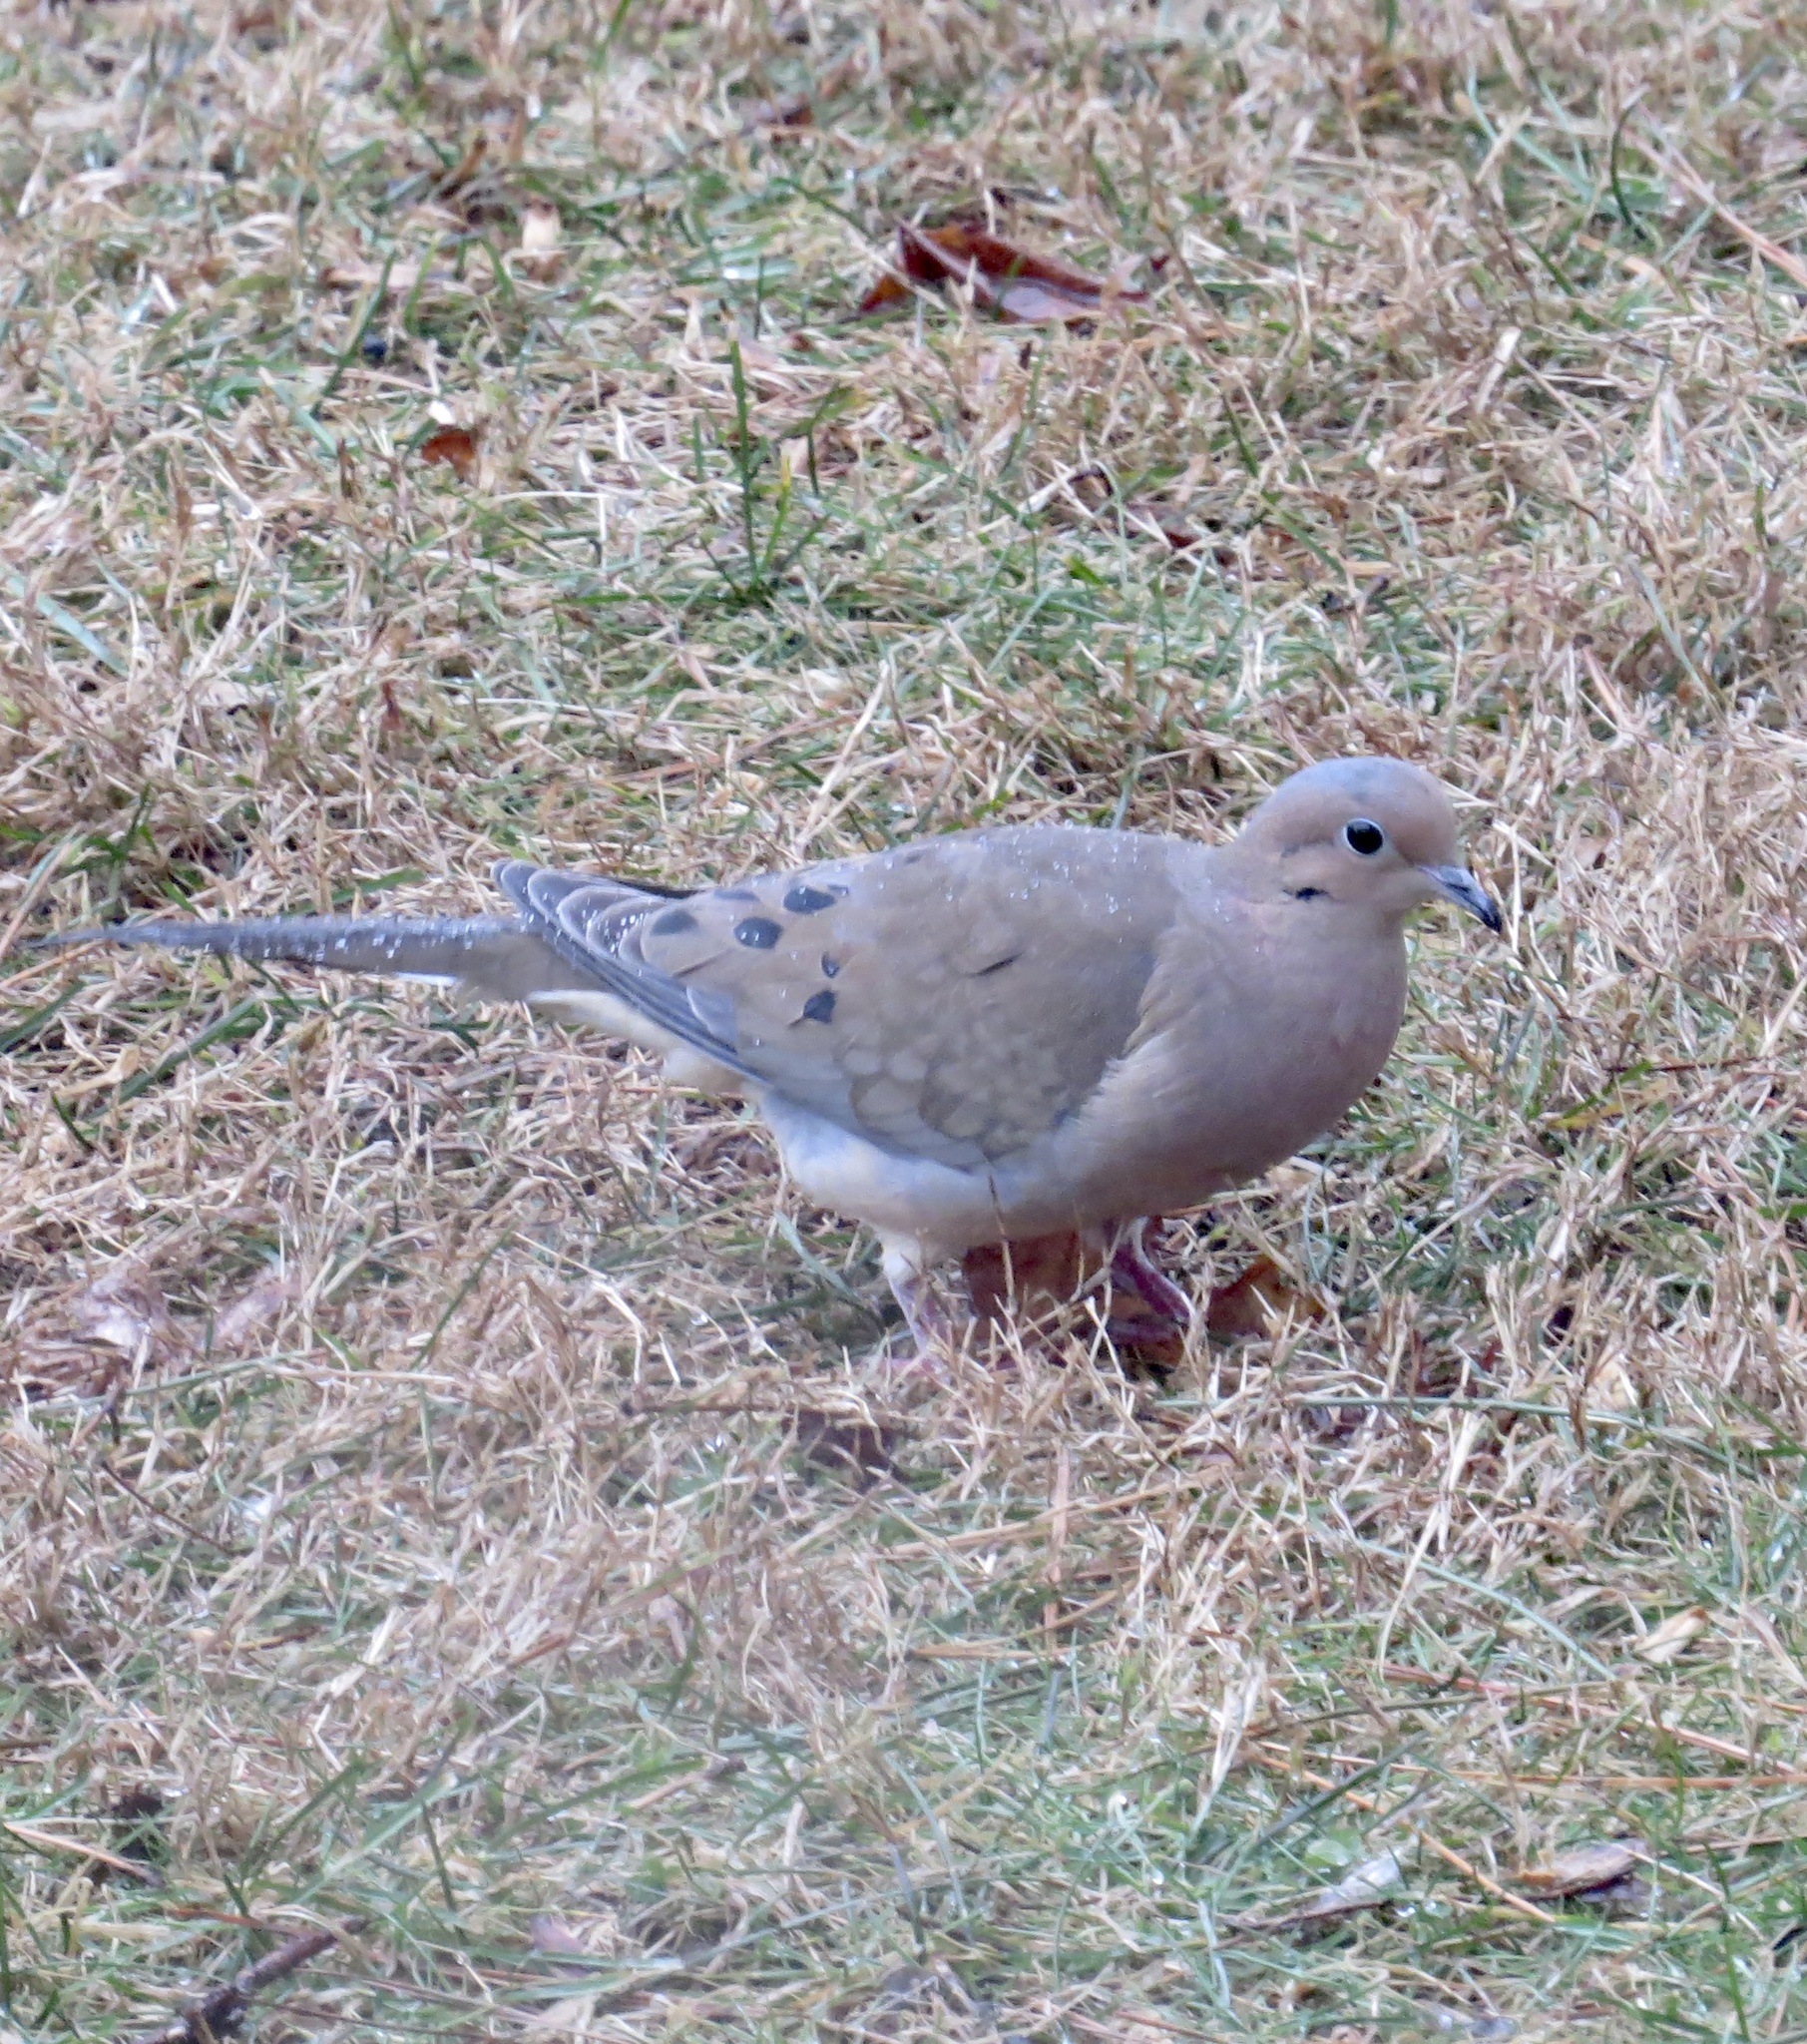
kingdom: Animalia
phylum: Chordata
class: Aves
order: Columbiformes
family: Columbidae
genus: Zenaida
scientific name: Zenaida macroura
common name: Mourning dove
